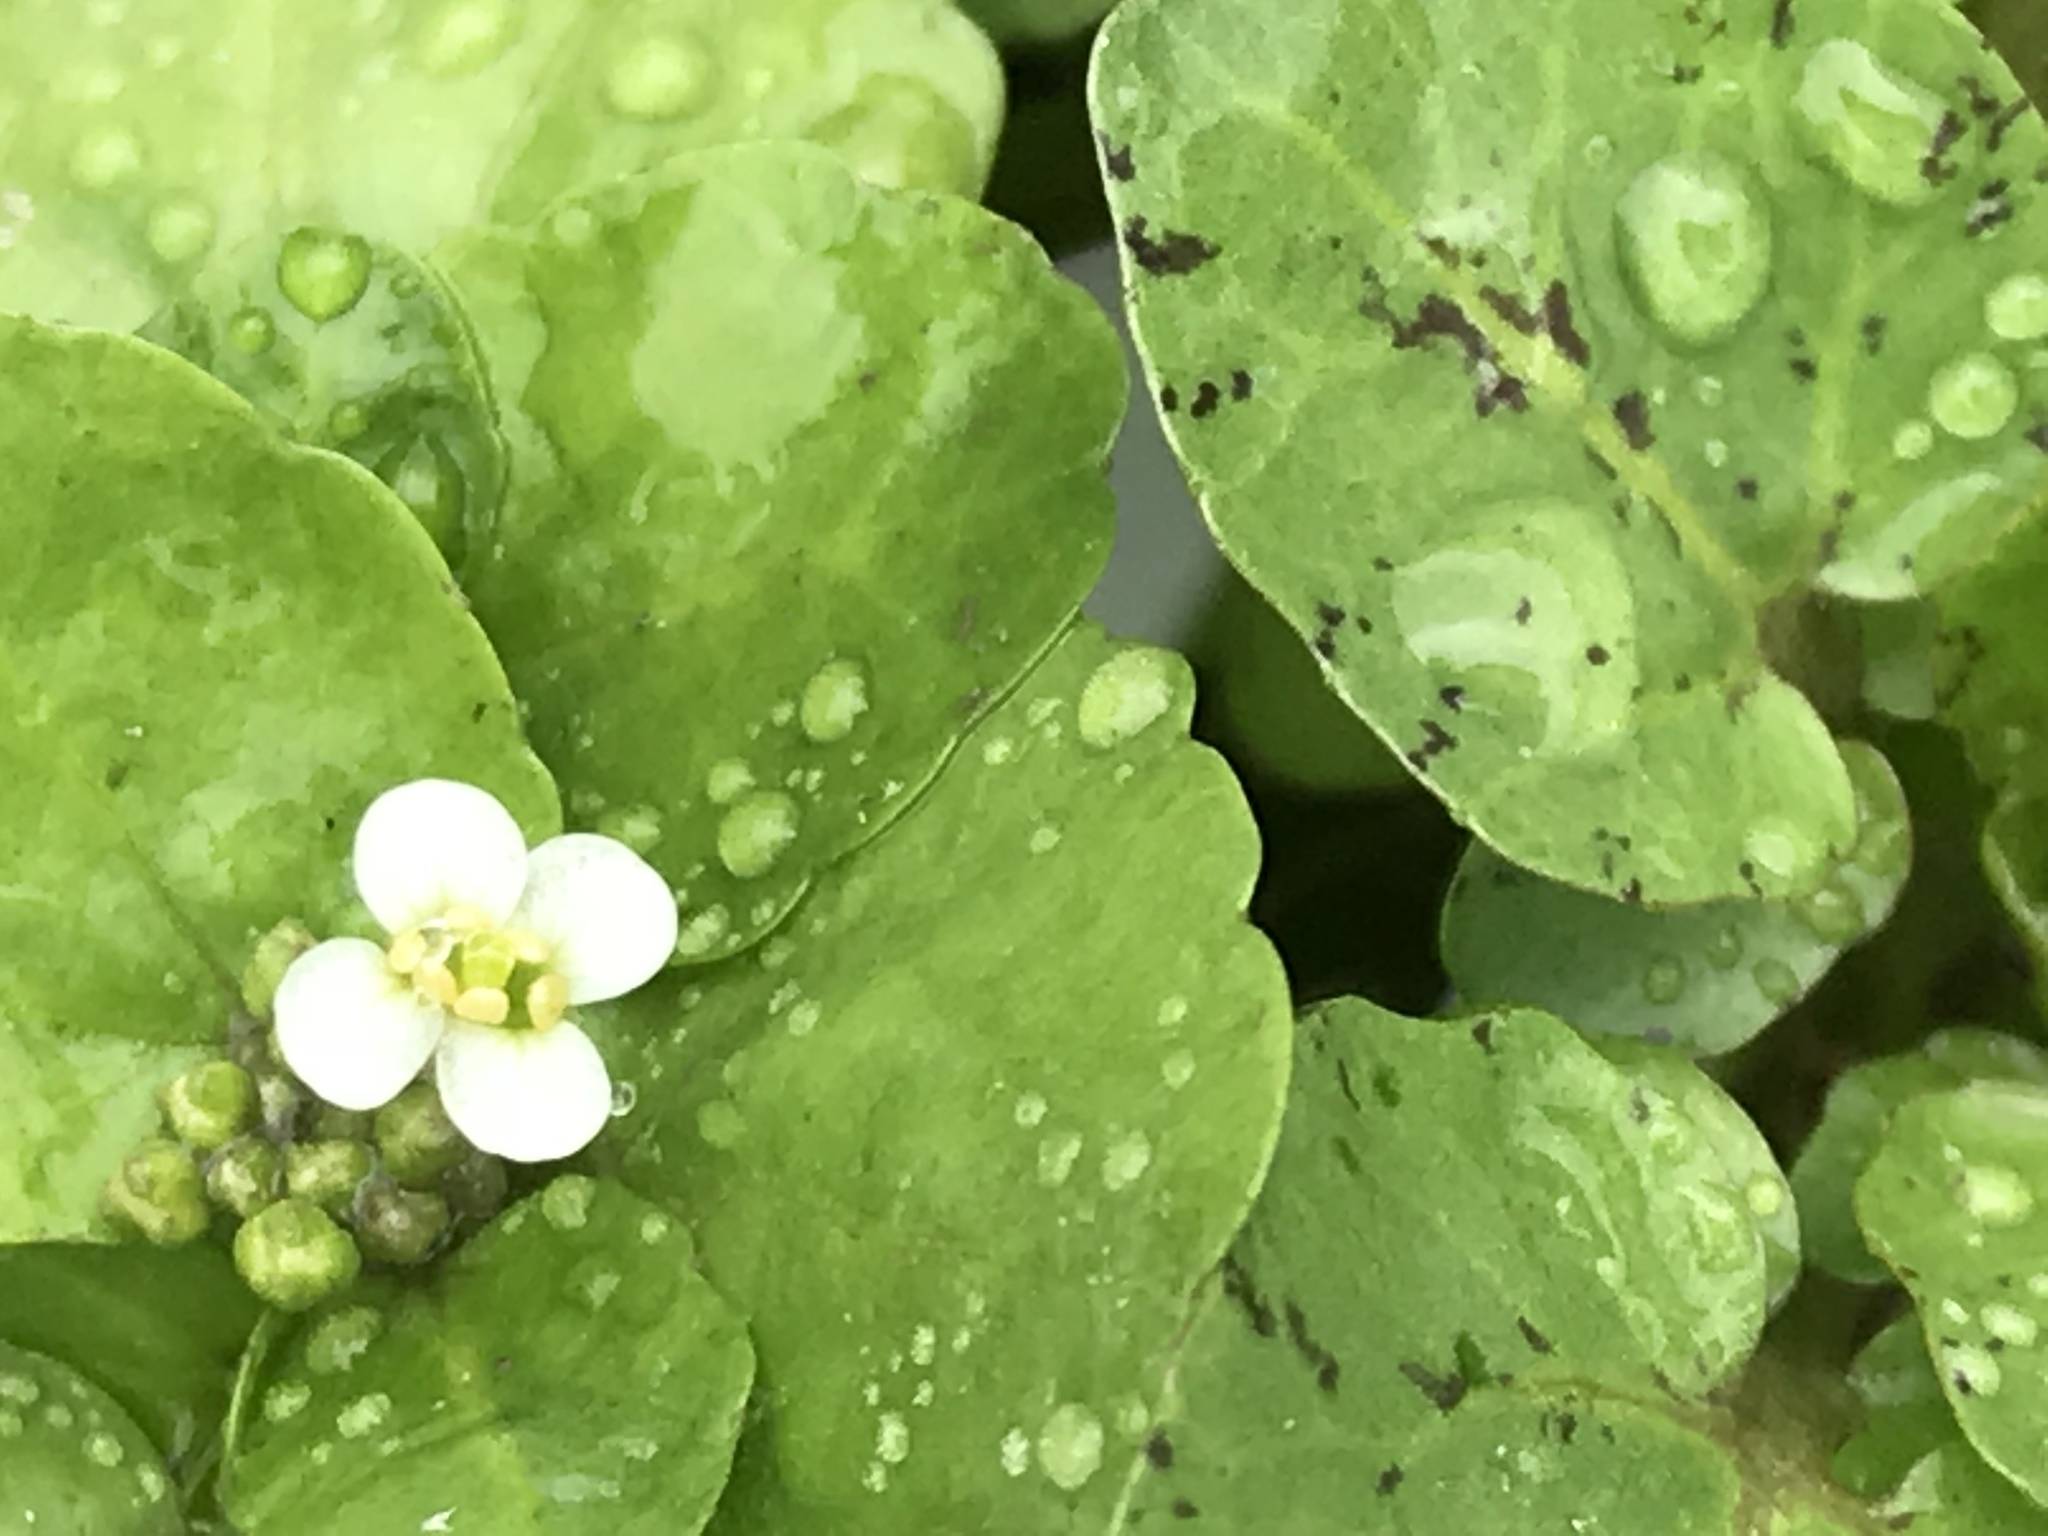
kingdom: Plantae
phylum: Tracheophyta
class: Magnoliopsida
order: Brassicales
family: Brassicaceae
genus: Nasturtium
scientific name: Nasturtium officinale
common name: Watercress
